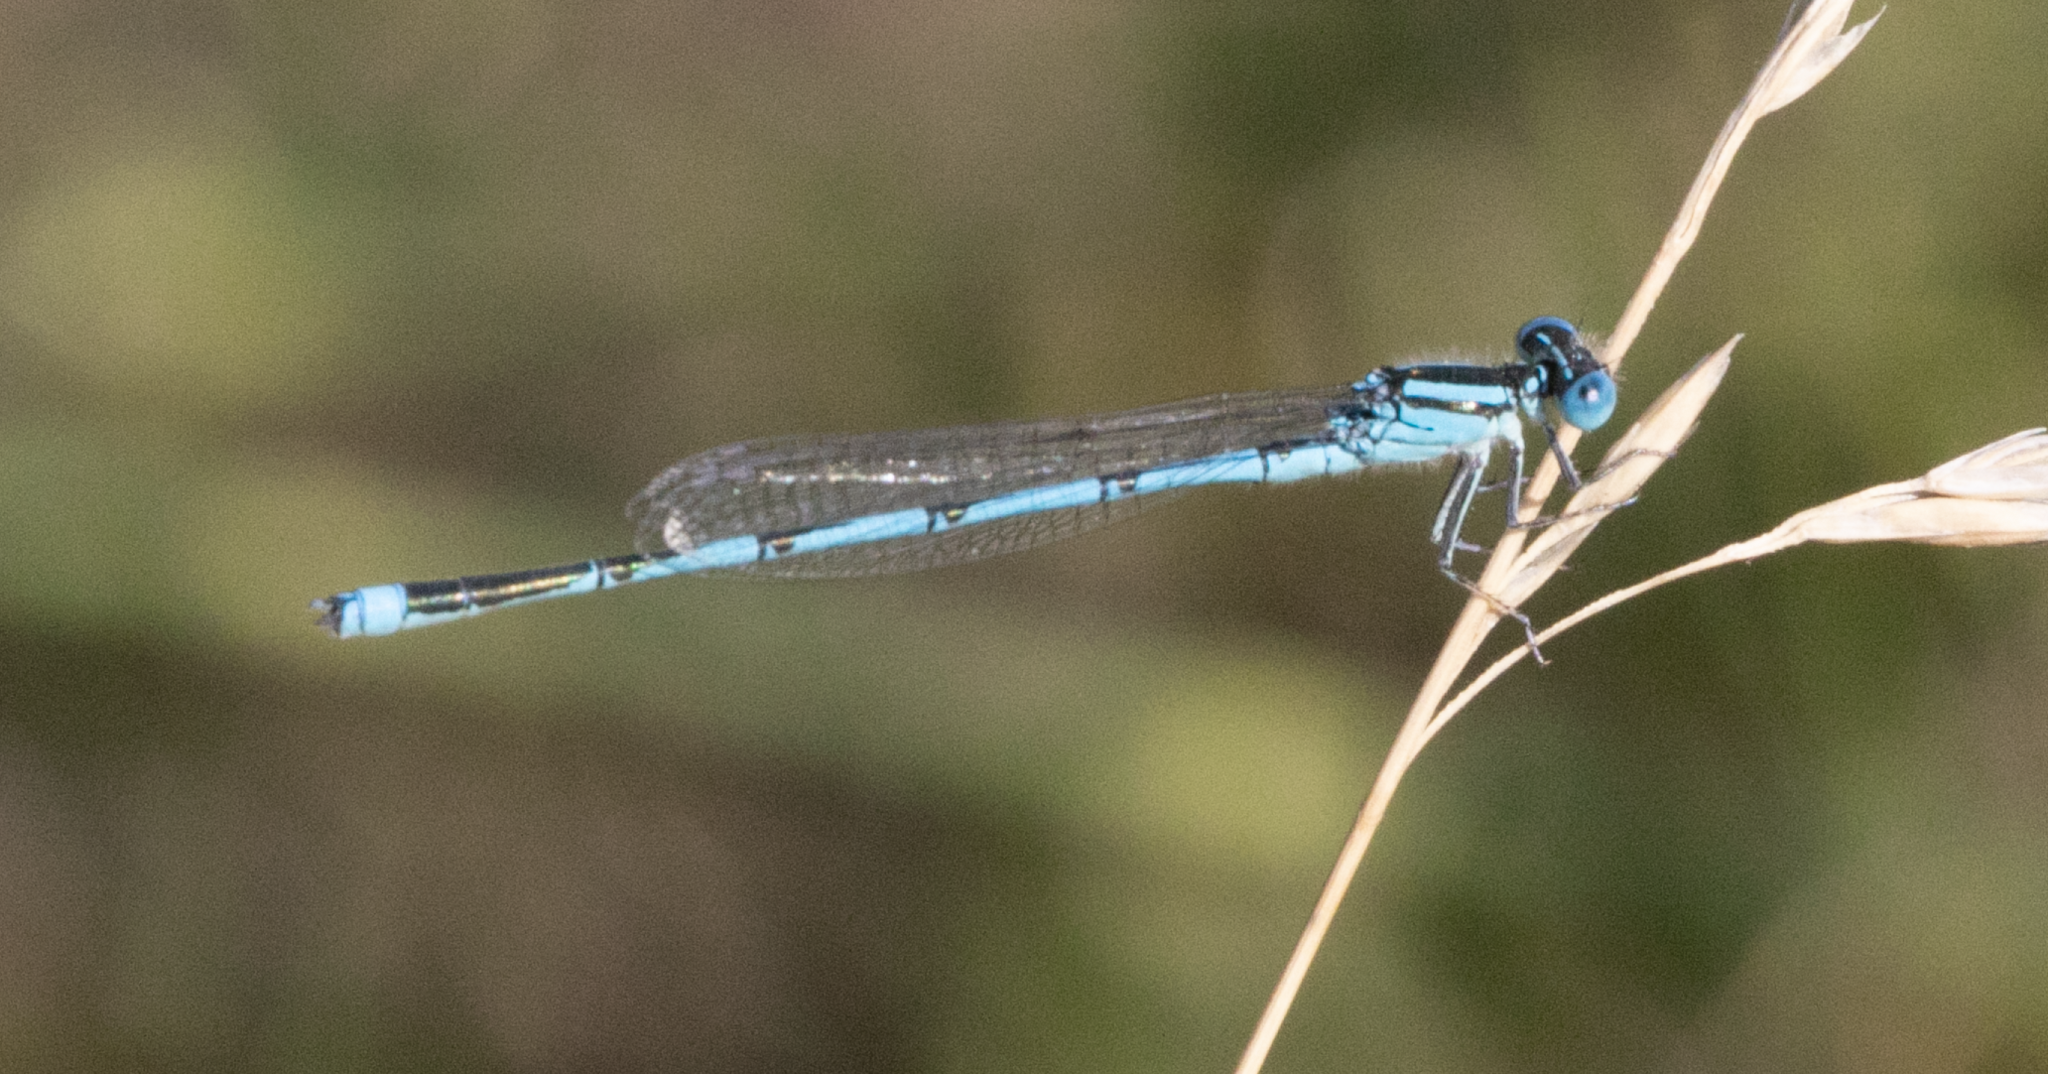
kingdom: Animalia
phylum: Arthropoda
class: Insecta
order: Odonata
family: Coenagrionidae
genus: Erythromma
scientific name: Erythromma lindenii
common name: Blue-eye
